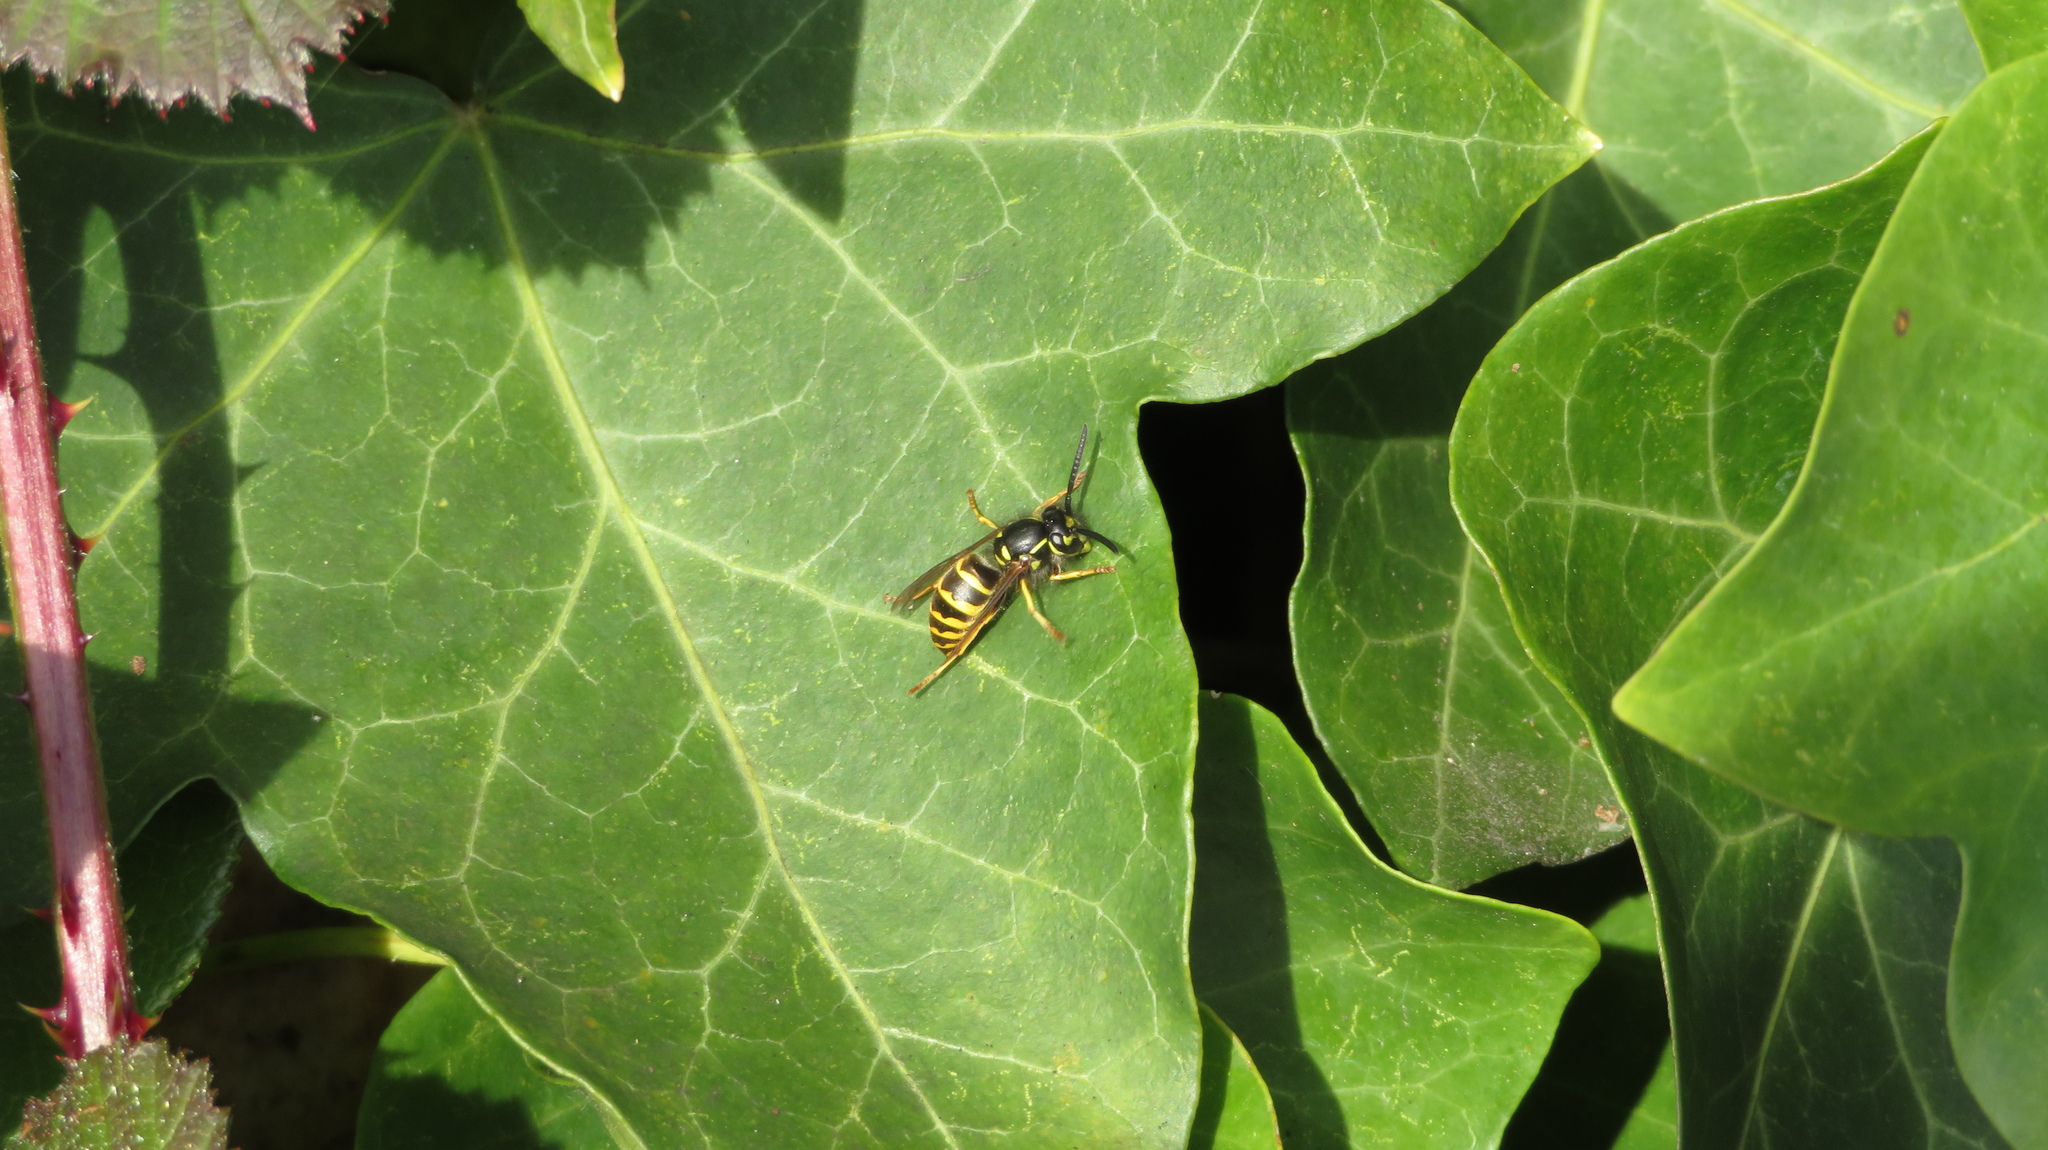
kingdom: Animalia
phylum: Arthropoda
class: Insecta
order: Hymenoptera
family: Vespidae
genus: Vespula
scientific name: Vespula alascensis
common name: Alaska yellowjacket
